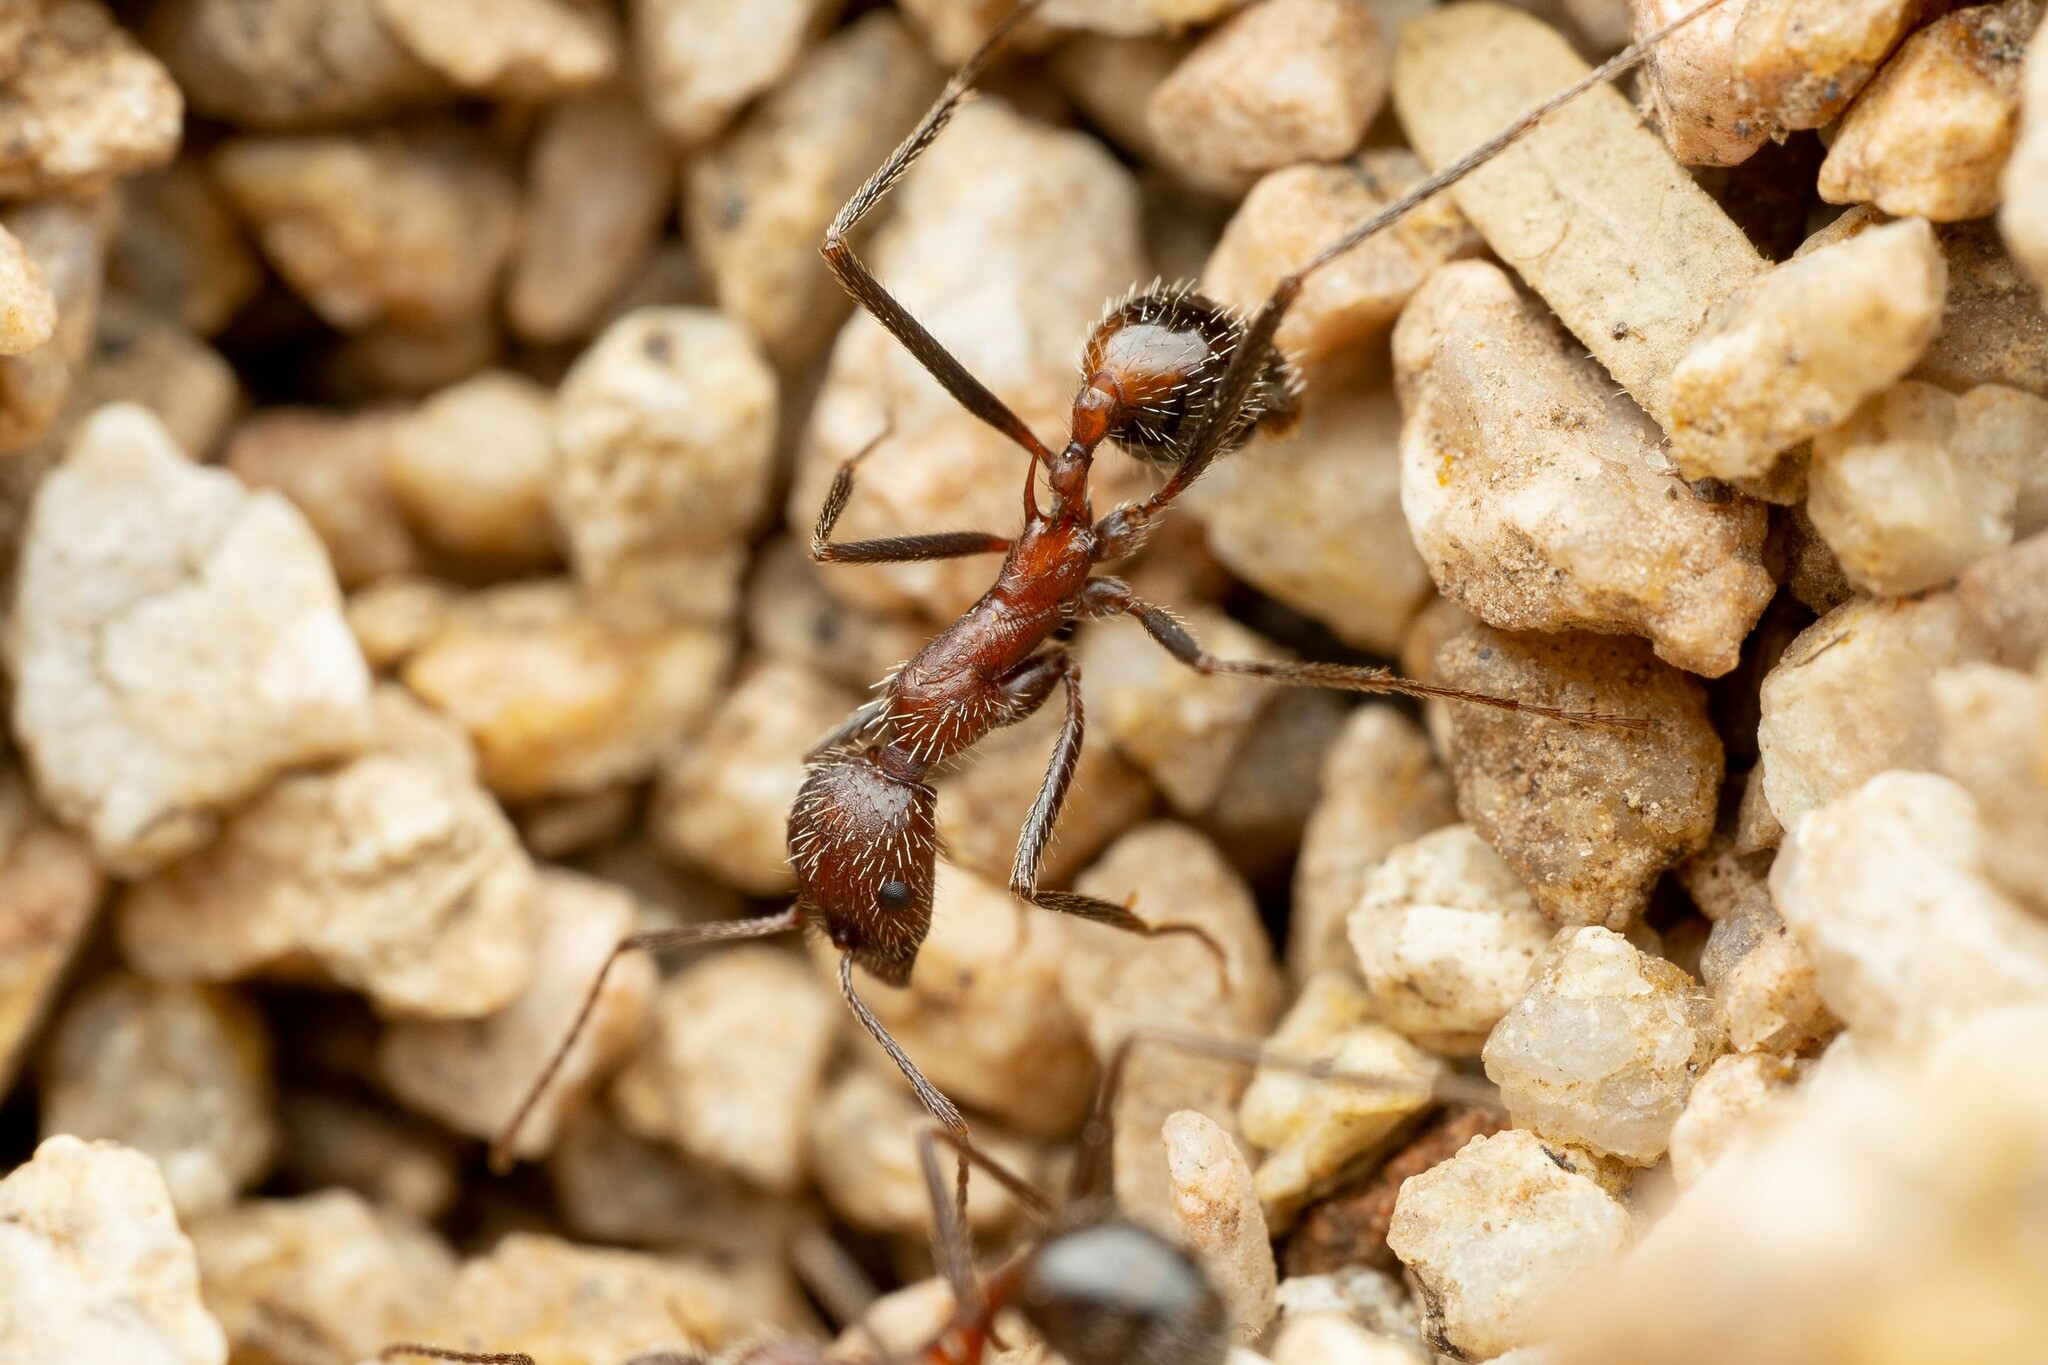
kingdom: Animalia
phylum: Arthropoda
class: Insecta
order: Hymenoptera
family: Formicidae
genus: Novomessor
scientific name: Novomessor albisetosa
